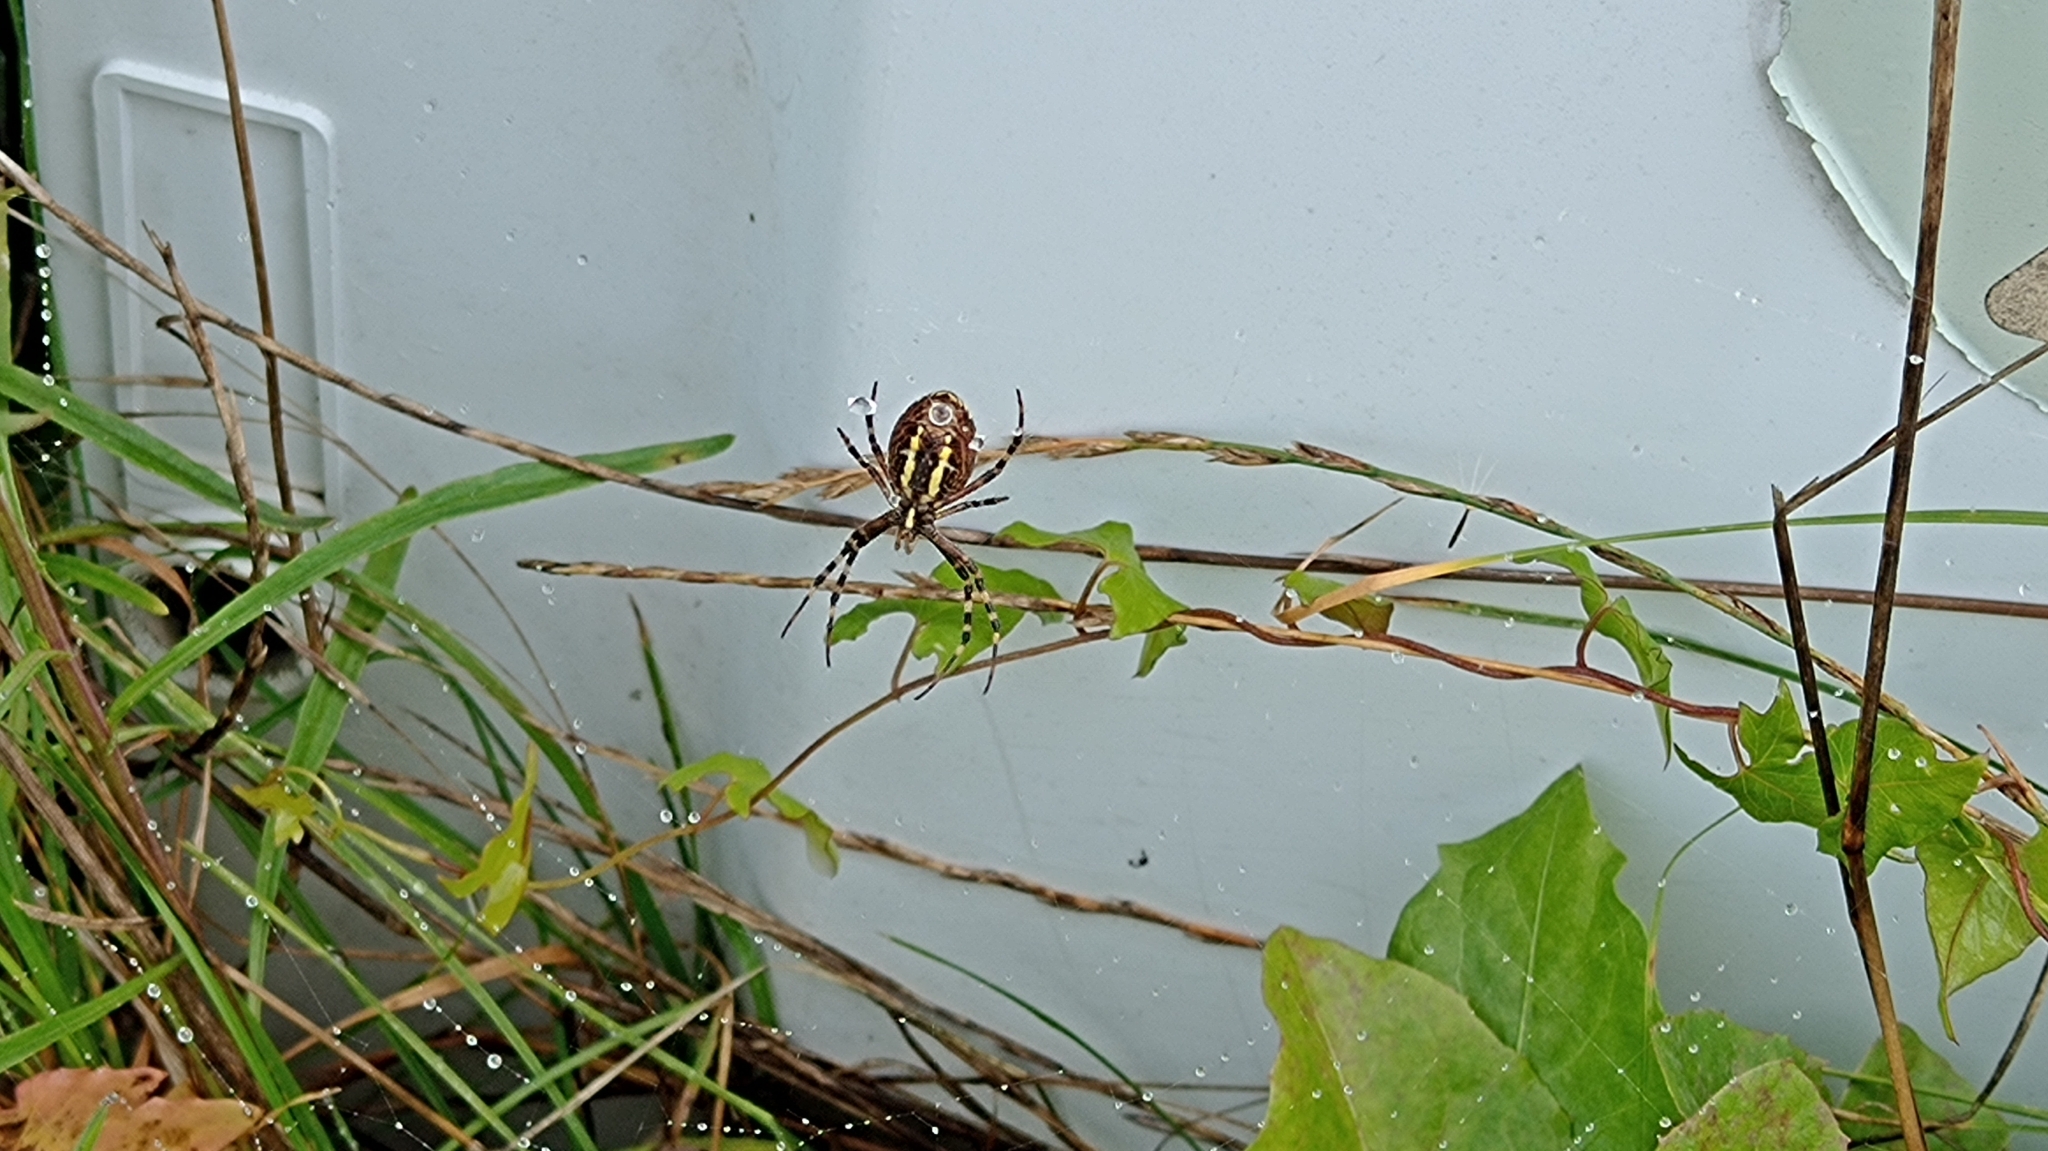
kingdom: Animalia
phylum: Arthropoda
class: Arachnida
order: Araneae
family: Araneidae
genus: Argiope
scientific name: Argiope bruennichi
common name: Wasp spider
